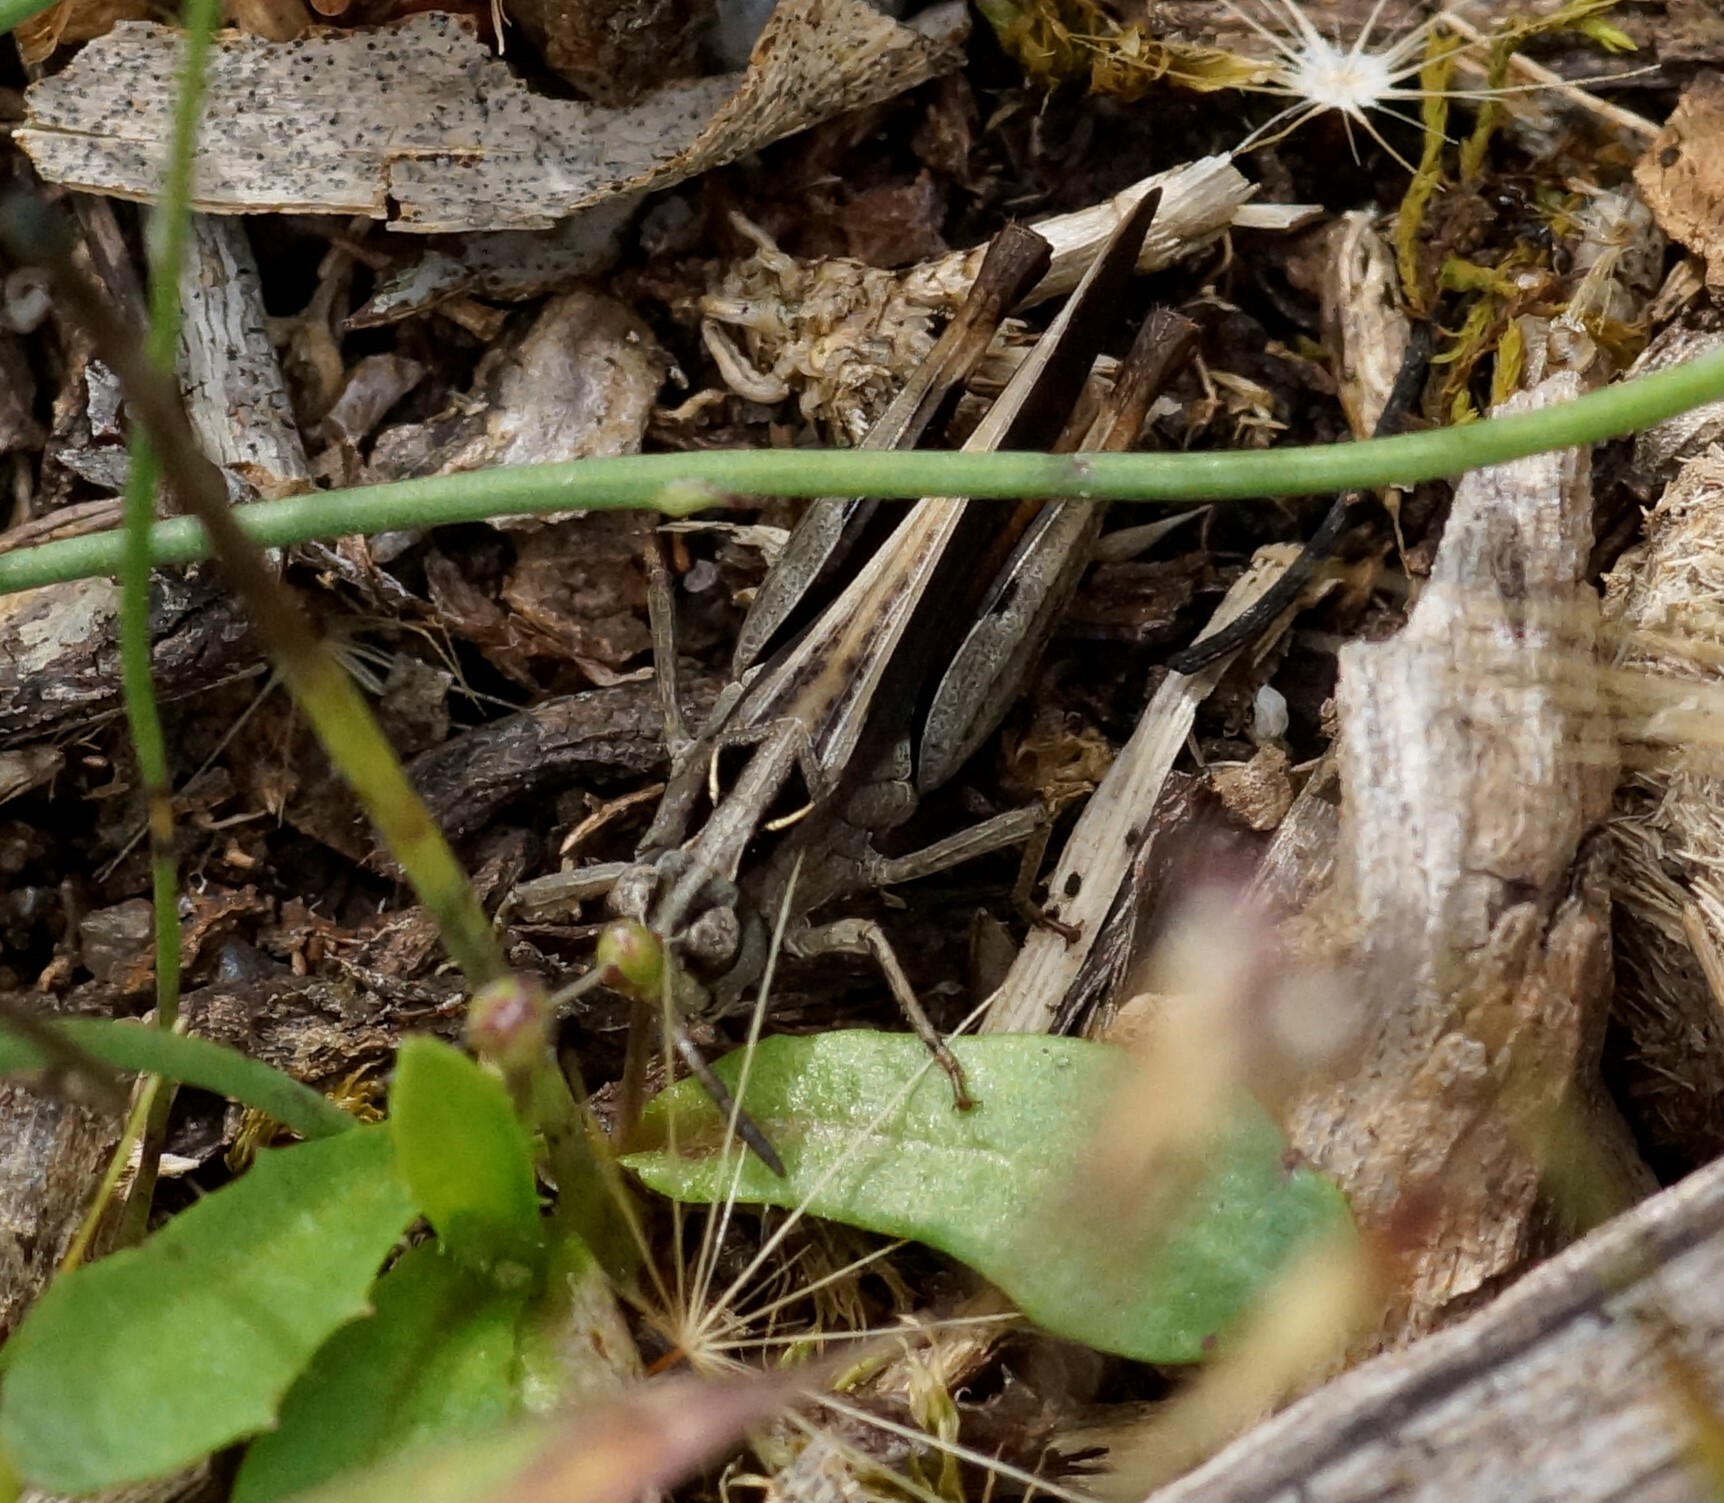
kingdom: Animalia
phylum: Arthropoda
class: Insecta
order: Orthoptera
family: Acrididae
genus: Cryptobothrus
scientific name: Cryptobothrus chrysophorus
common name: Golden bandwing
